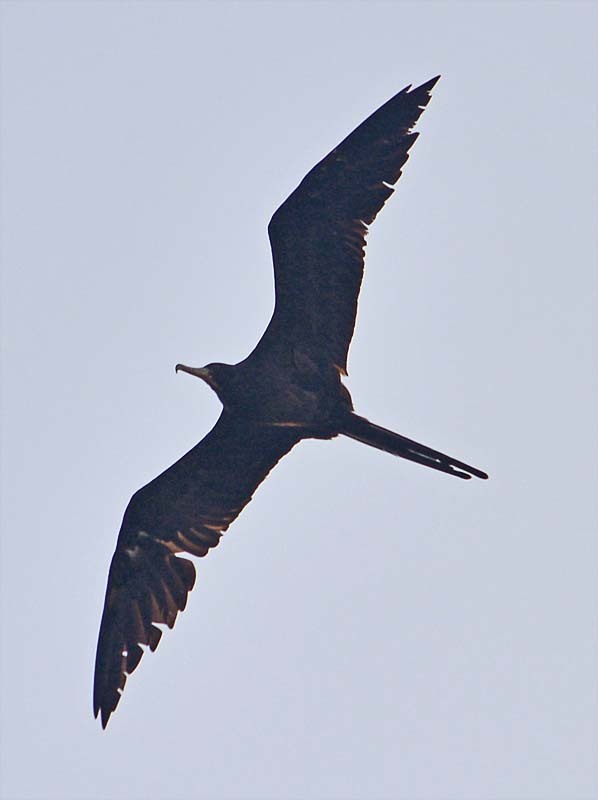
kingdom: Animalia
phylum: Chordata
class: Aves
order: Suliformes
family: Fregatidae
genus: Fregata
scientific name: Fregata magnificens
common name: Magnificent frigatebird
